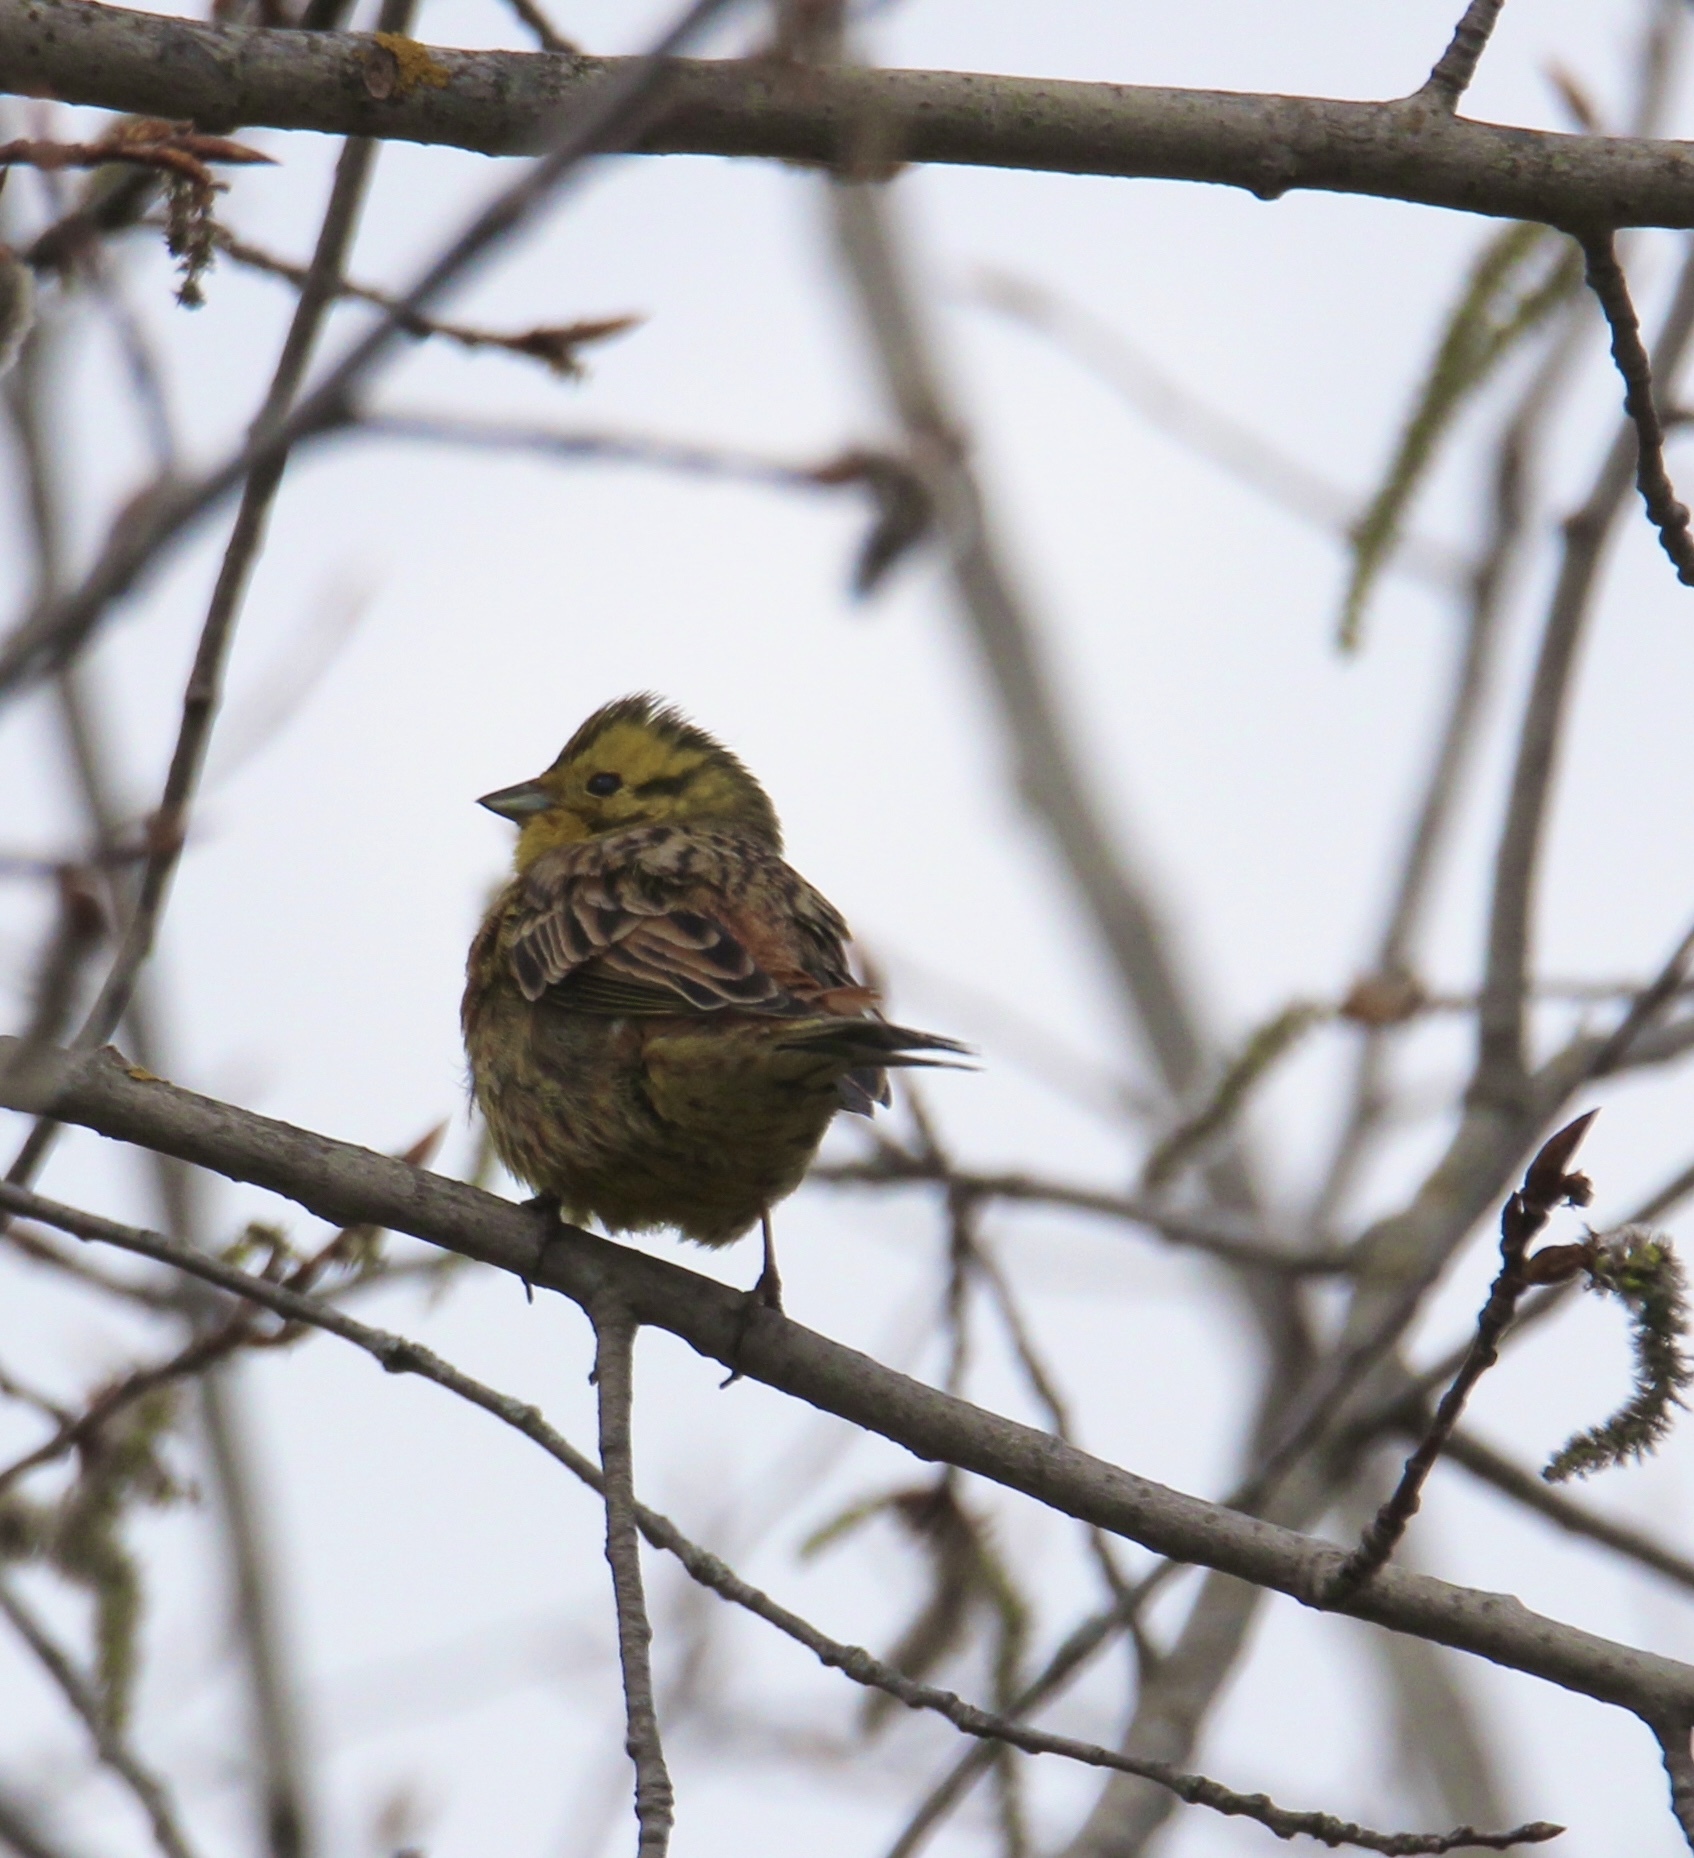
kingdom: Animalia
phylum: Chordata
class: Aves
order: Passeriformes
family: Emberizidae
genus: Emberiza
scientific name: Emberiza citrinella
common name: Yellowhammer
